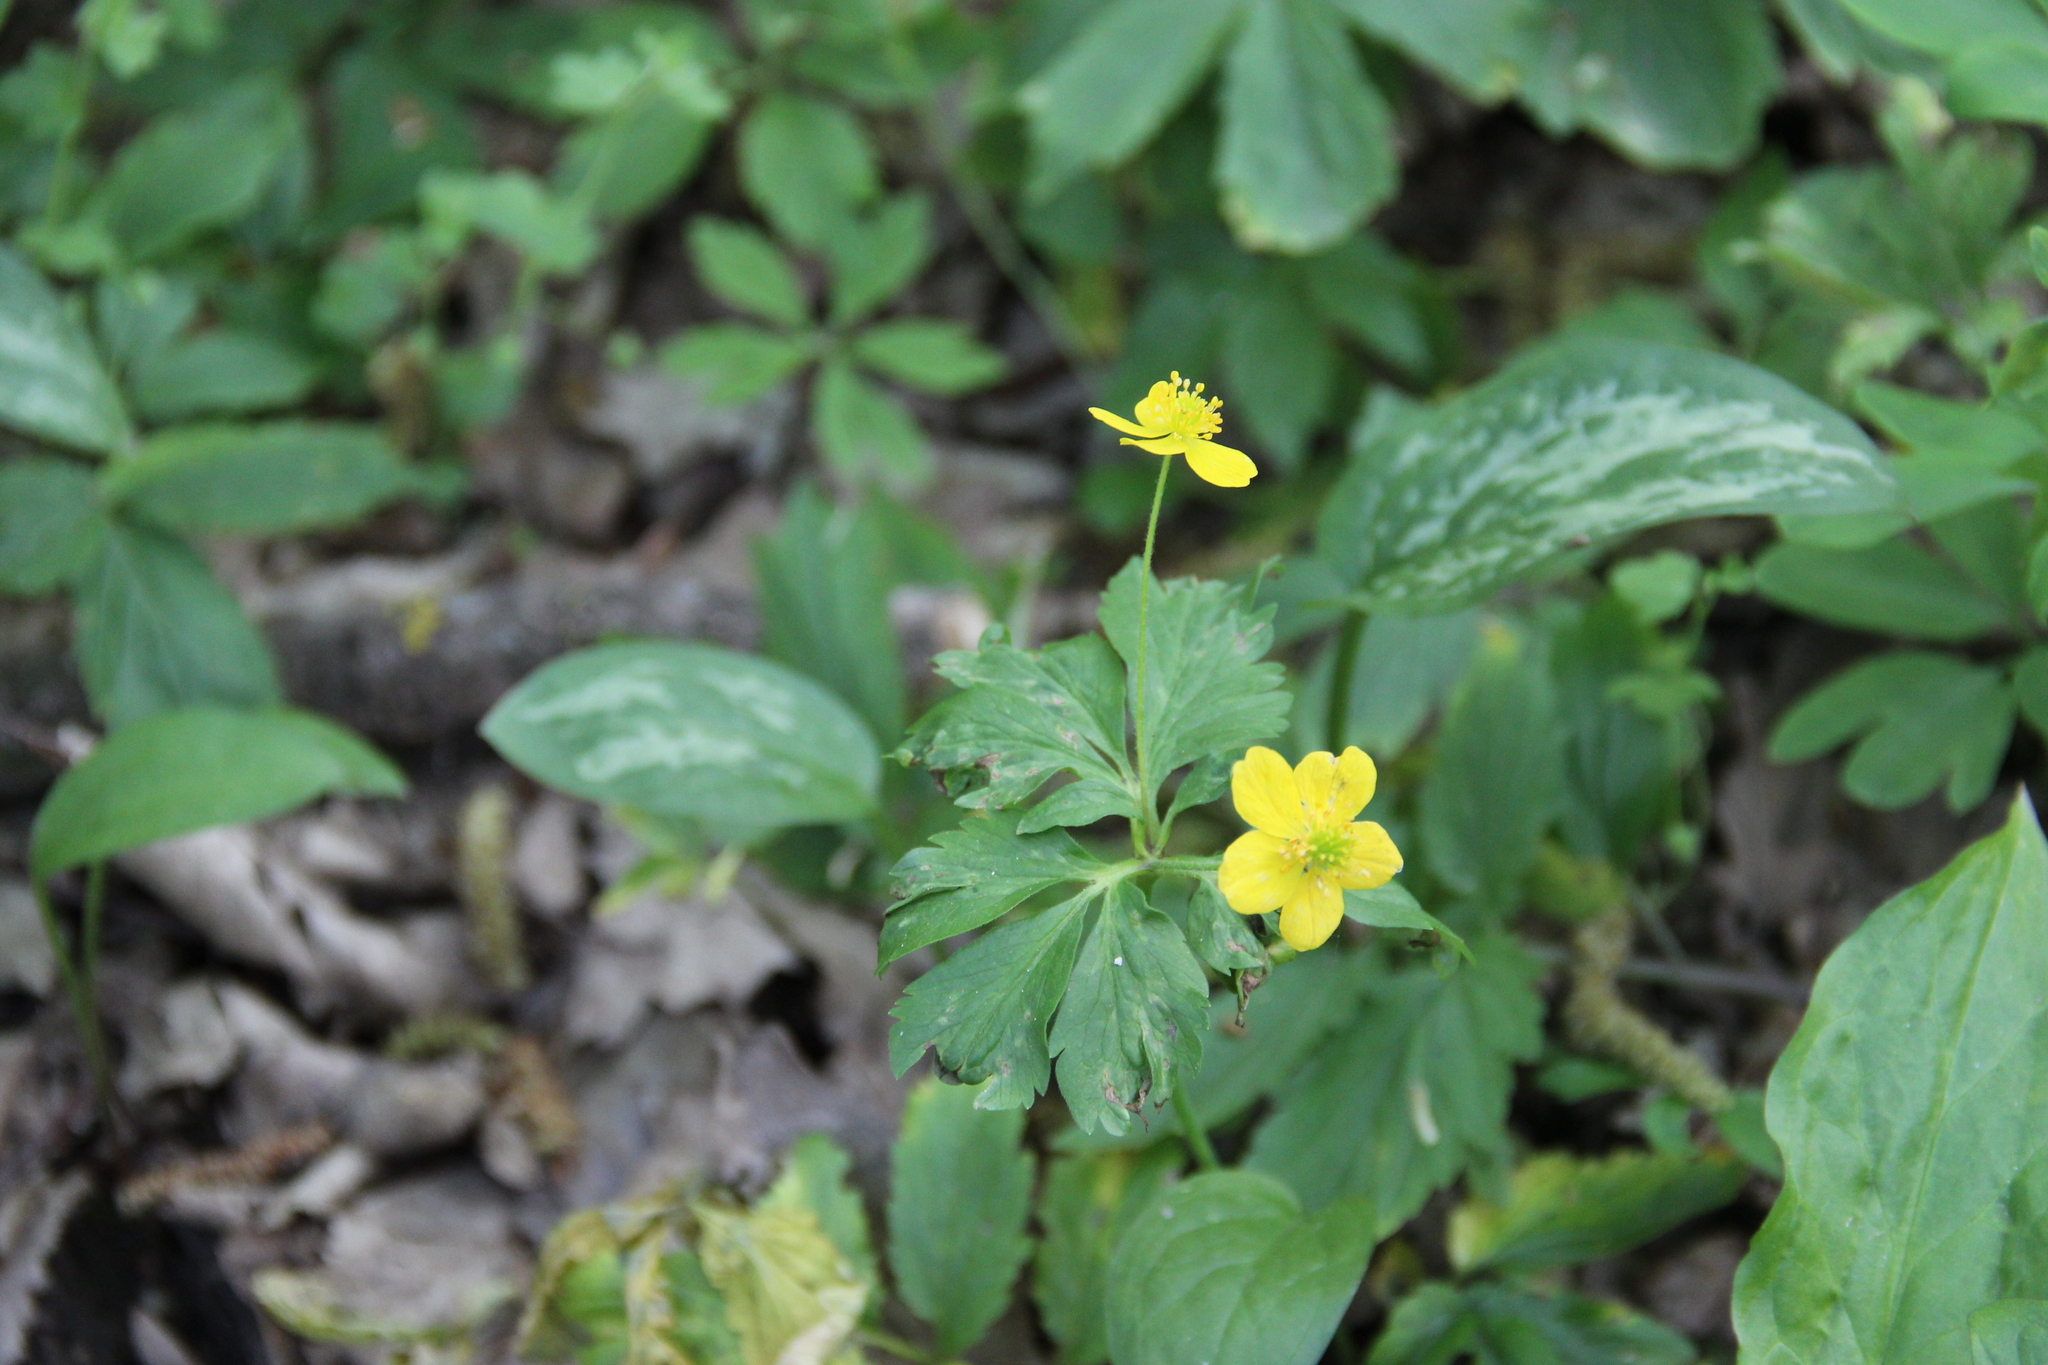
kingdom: Plantae
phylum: Tracheophyta
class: Magnoliopsida
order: Ranunculales
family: Ranunculaceae
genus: Anemone
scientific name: Anemone ranunculoides
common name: Yellow anemone
